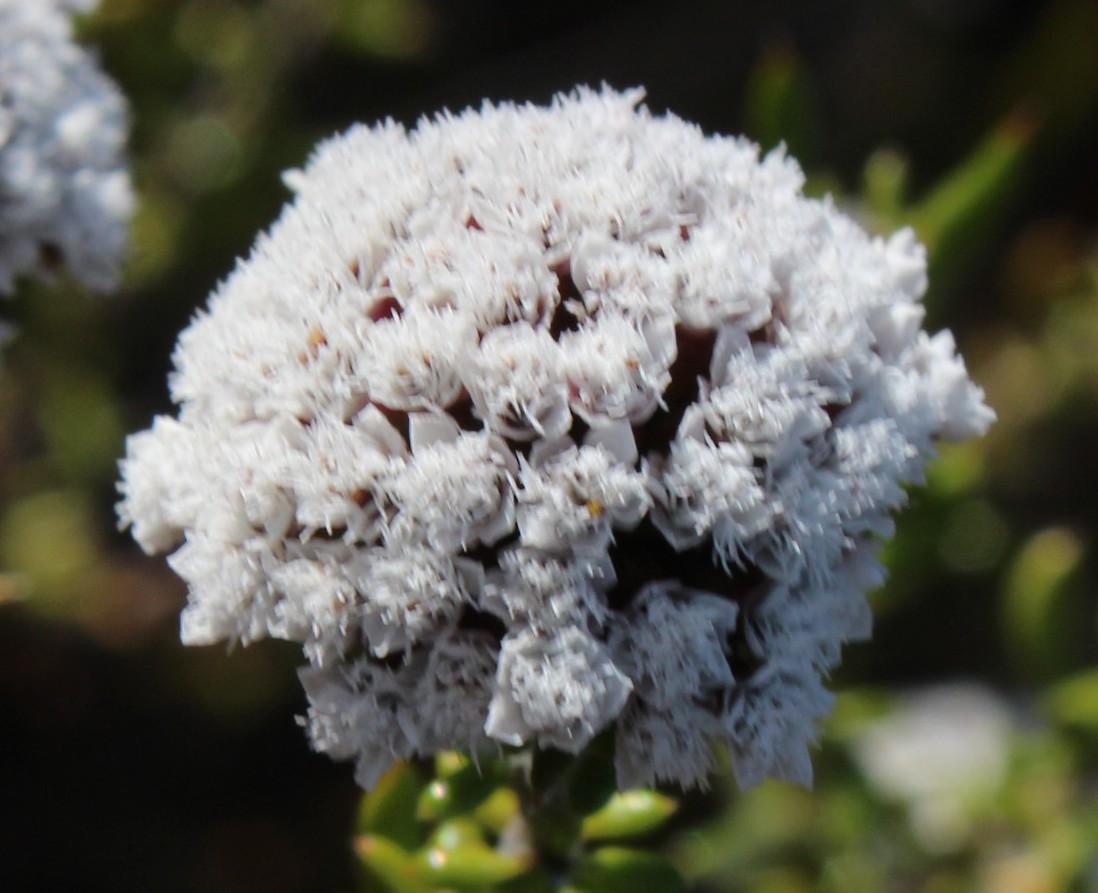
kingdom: Plantae
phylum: Tracheophyta
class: Magnoliopsida
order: Asterales
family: Asteraceae
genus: Metalasia
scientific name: Metalasia umbelliformis
